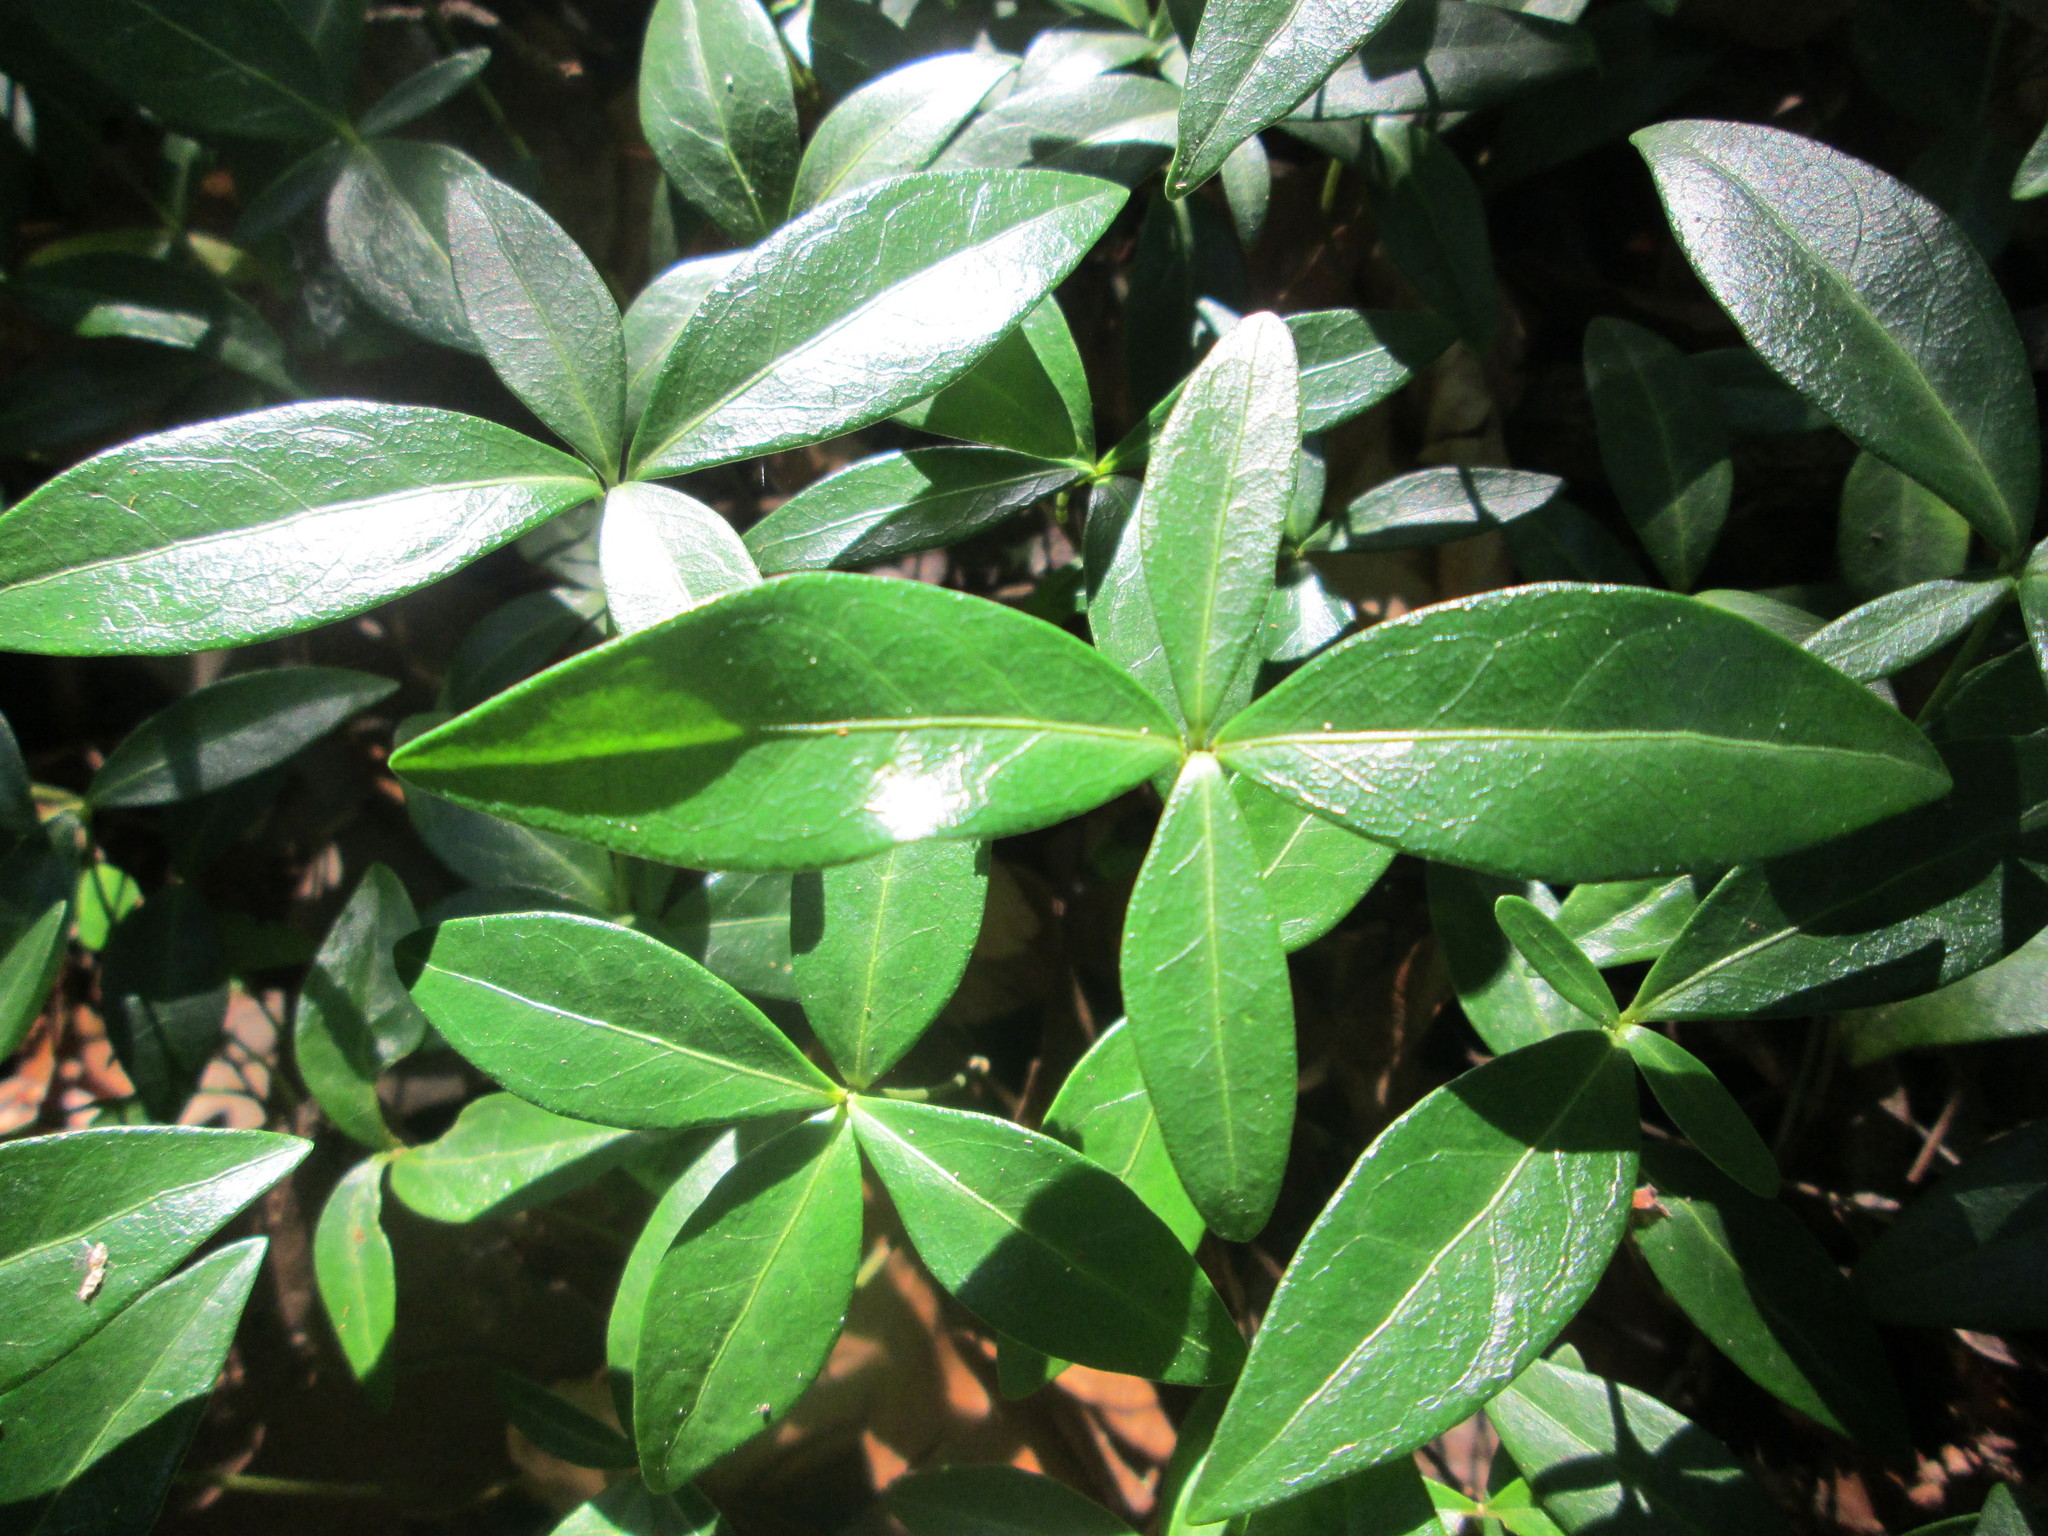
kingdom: Plantae
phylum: Tracheophyta
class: Magnoliopsida
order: Gentianales
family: Apocynaceae
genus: Vinca
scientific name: Vinca minor
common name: Lesser periwinkle
